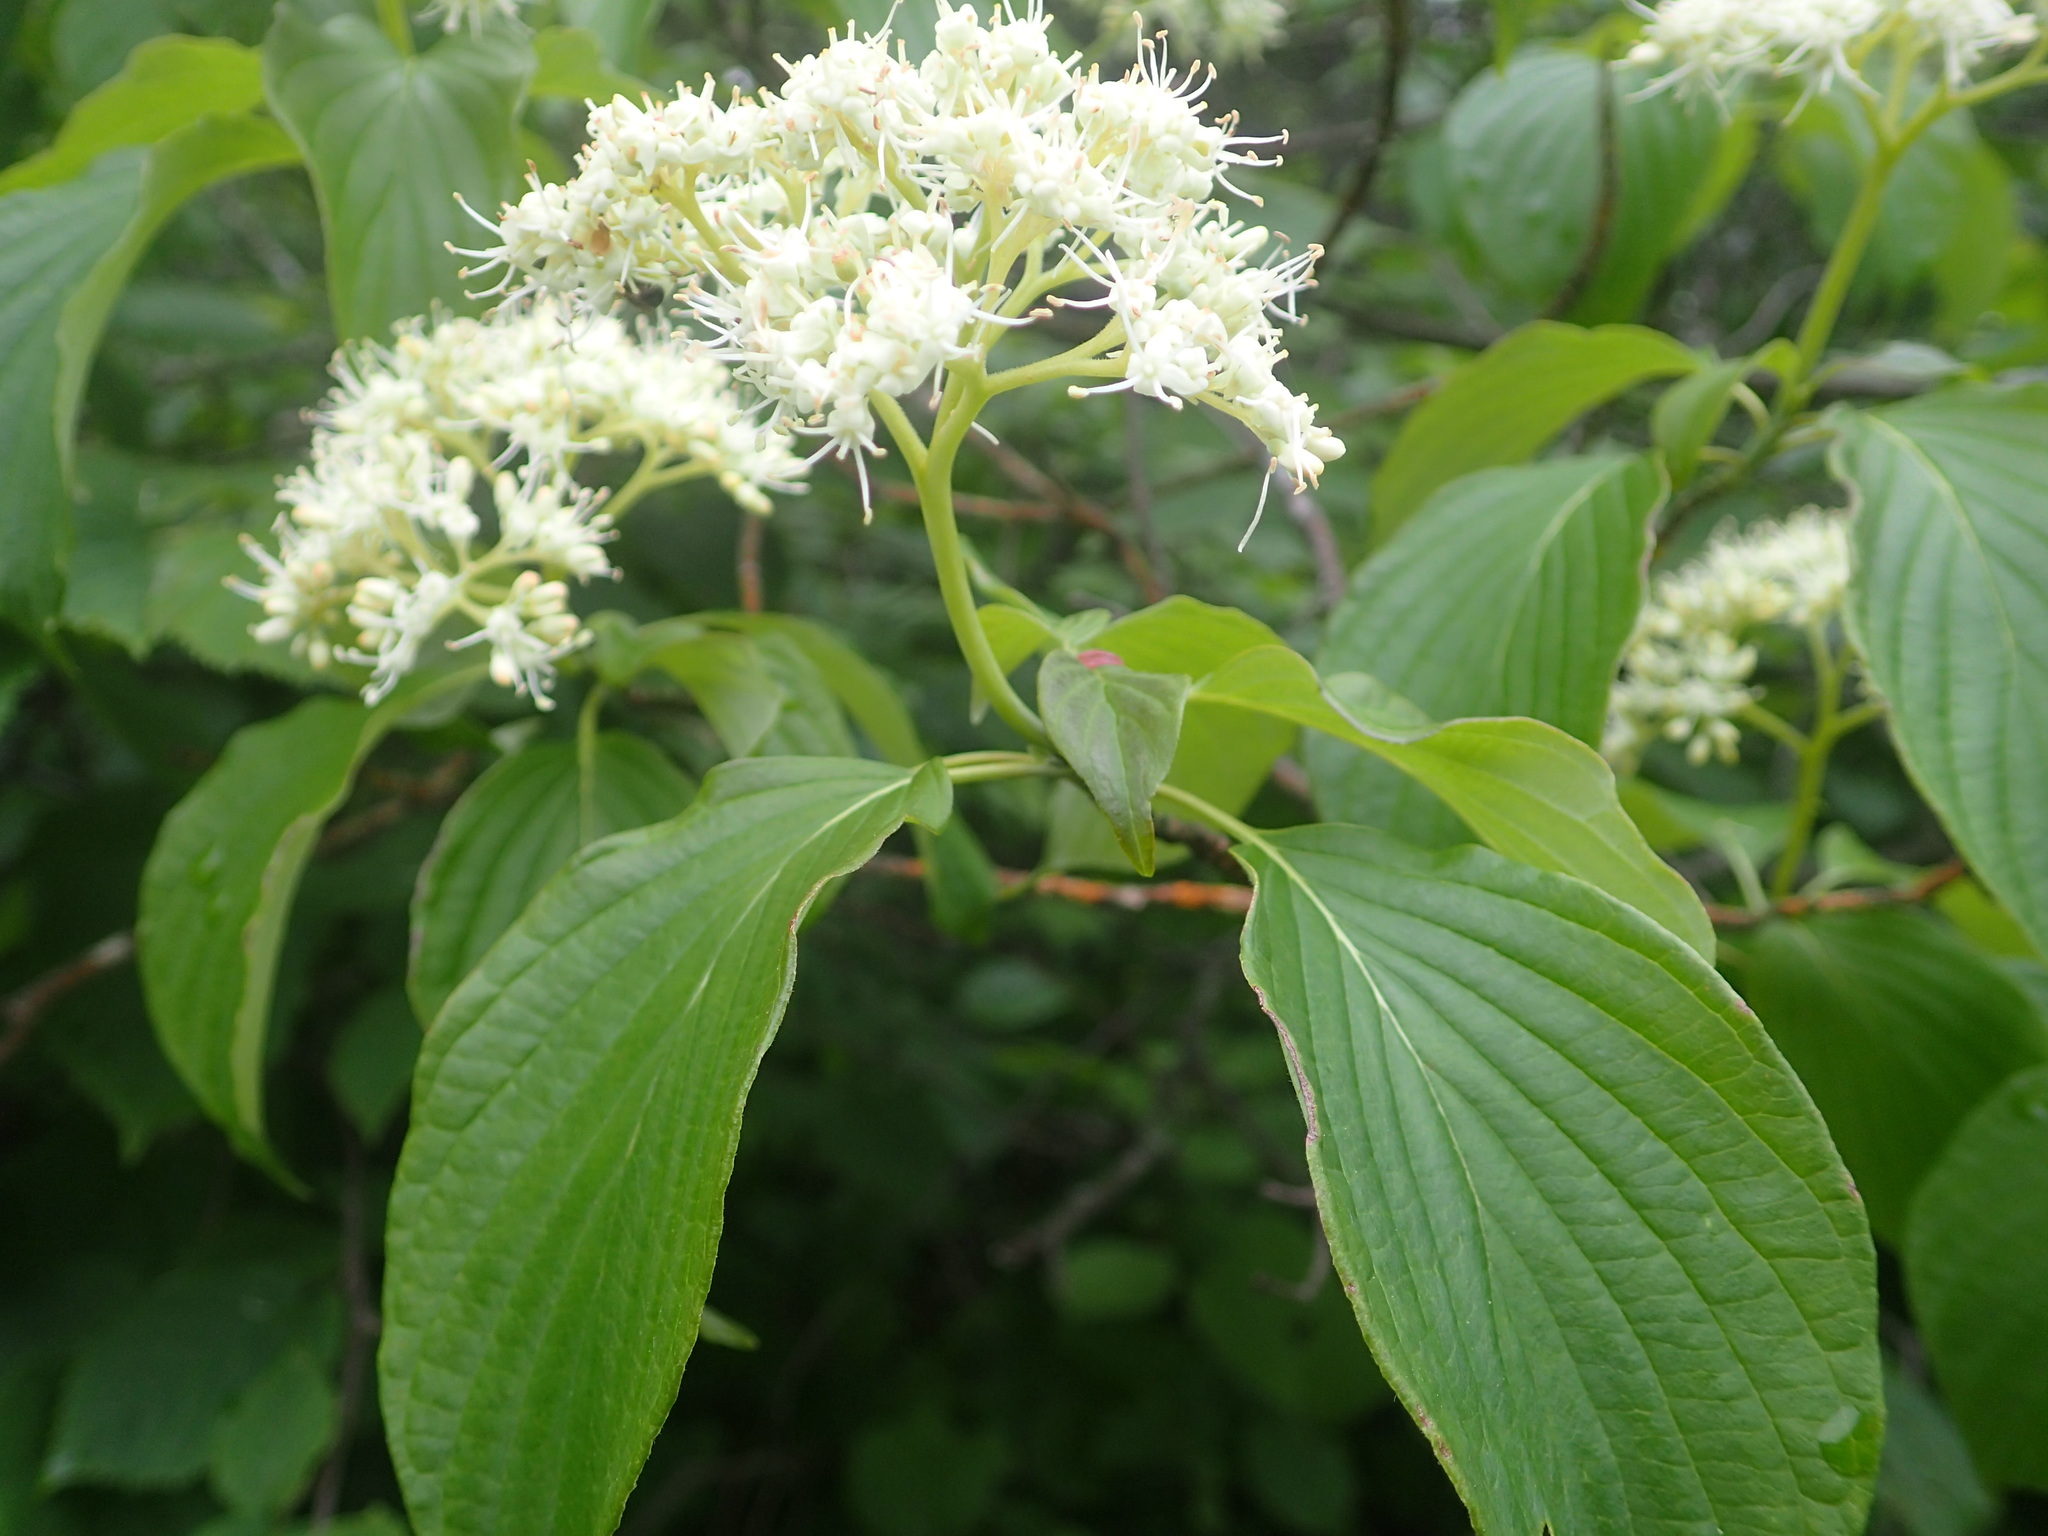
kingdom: Plantae
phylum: Tracheophyta
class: Magnoliopsida
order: Cornales
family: Cornaceae
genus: Cornus
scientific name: Cornus alternifolia
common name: Pagoda dogwood
